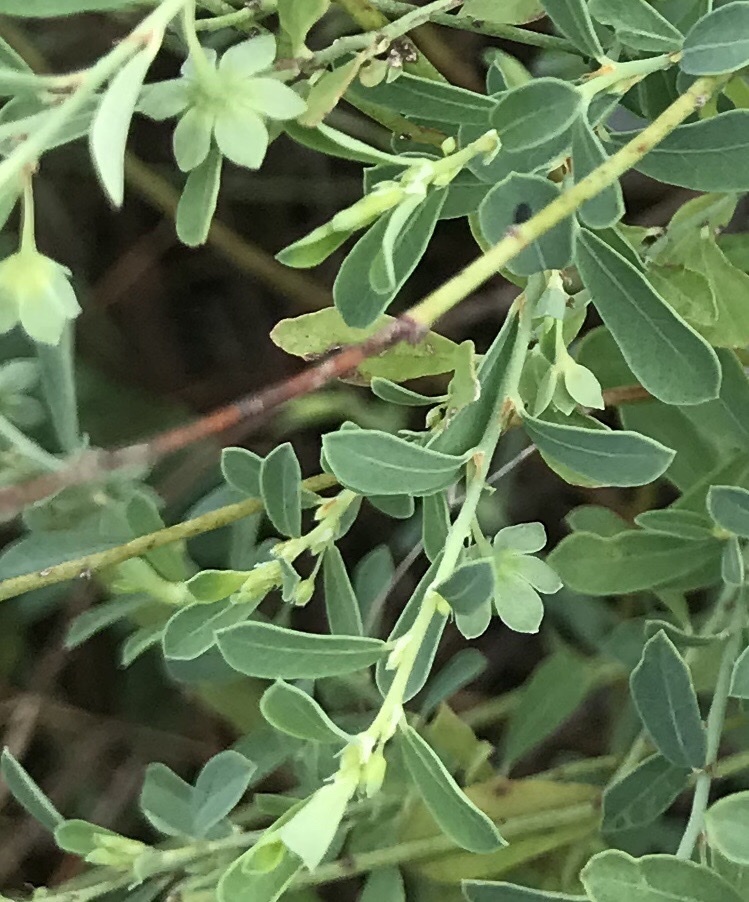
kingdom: Plantae
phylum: Tracheophyta
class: Magnoliopsida
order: Malpighiales
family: Phyllanthaceae
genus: Phyllanthus
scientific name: Phyllanthus polygonoides
